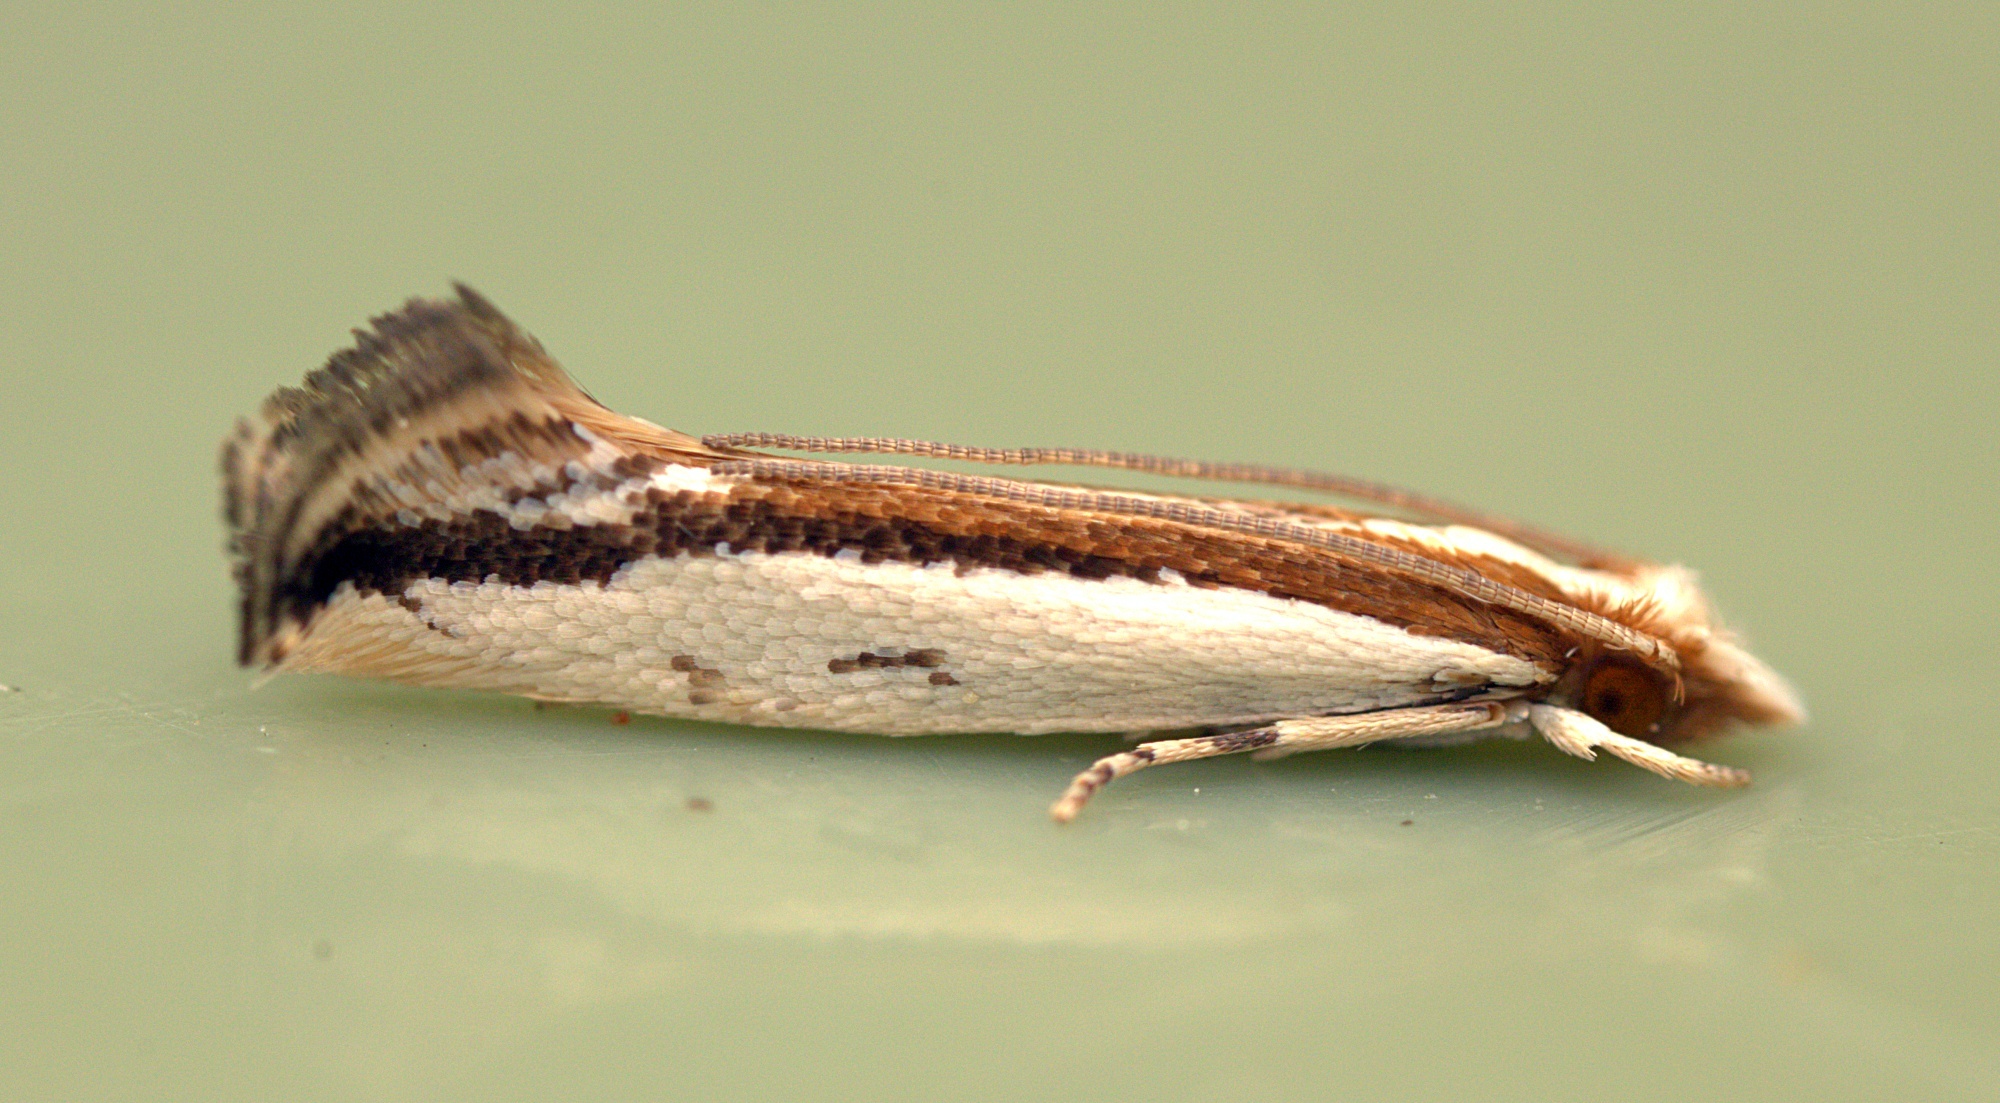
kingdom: Animalia
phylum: Arthropoda
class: Insecta
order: Lepidoptera
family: Tineidae
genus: Erechthias
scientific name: Erechthias chionodira
